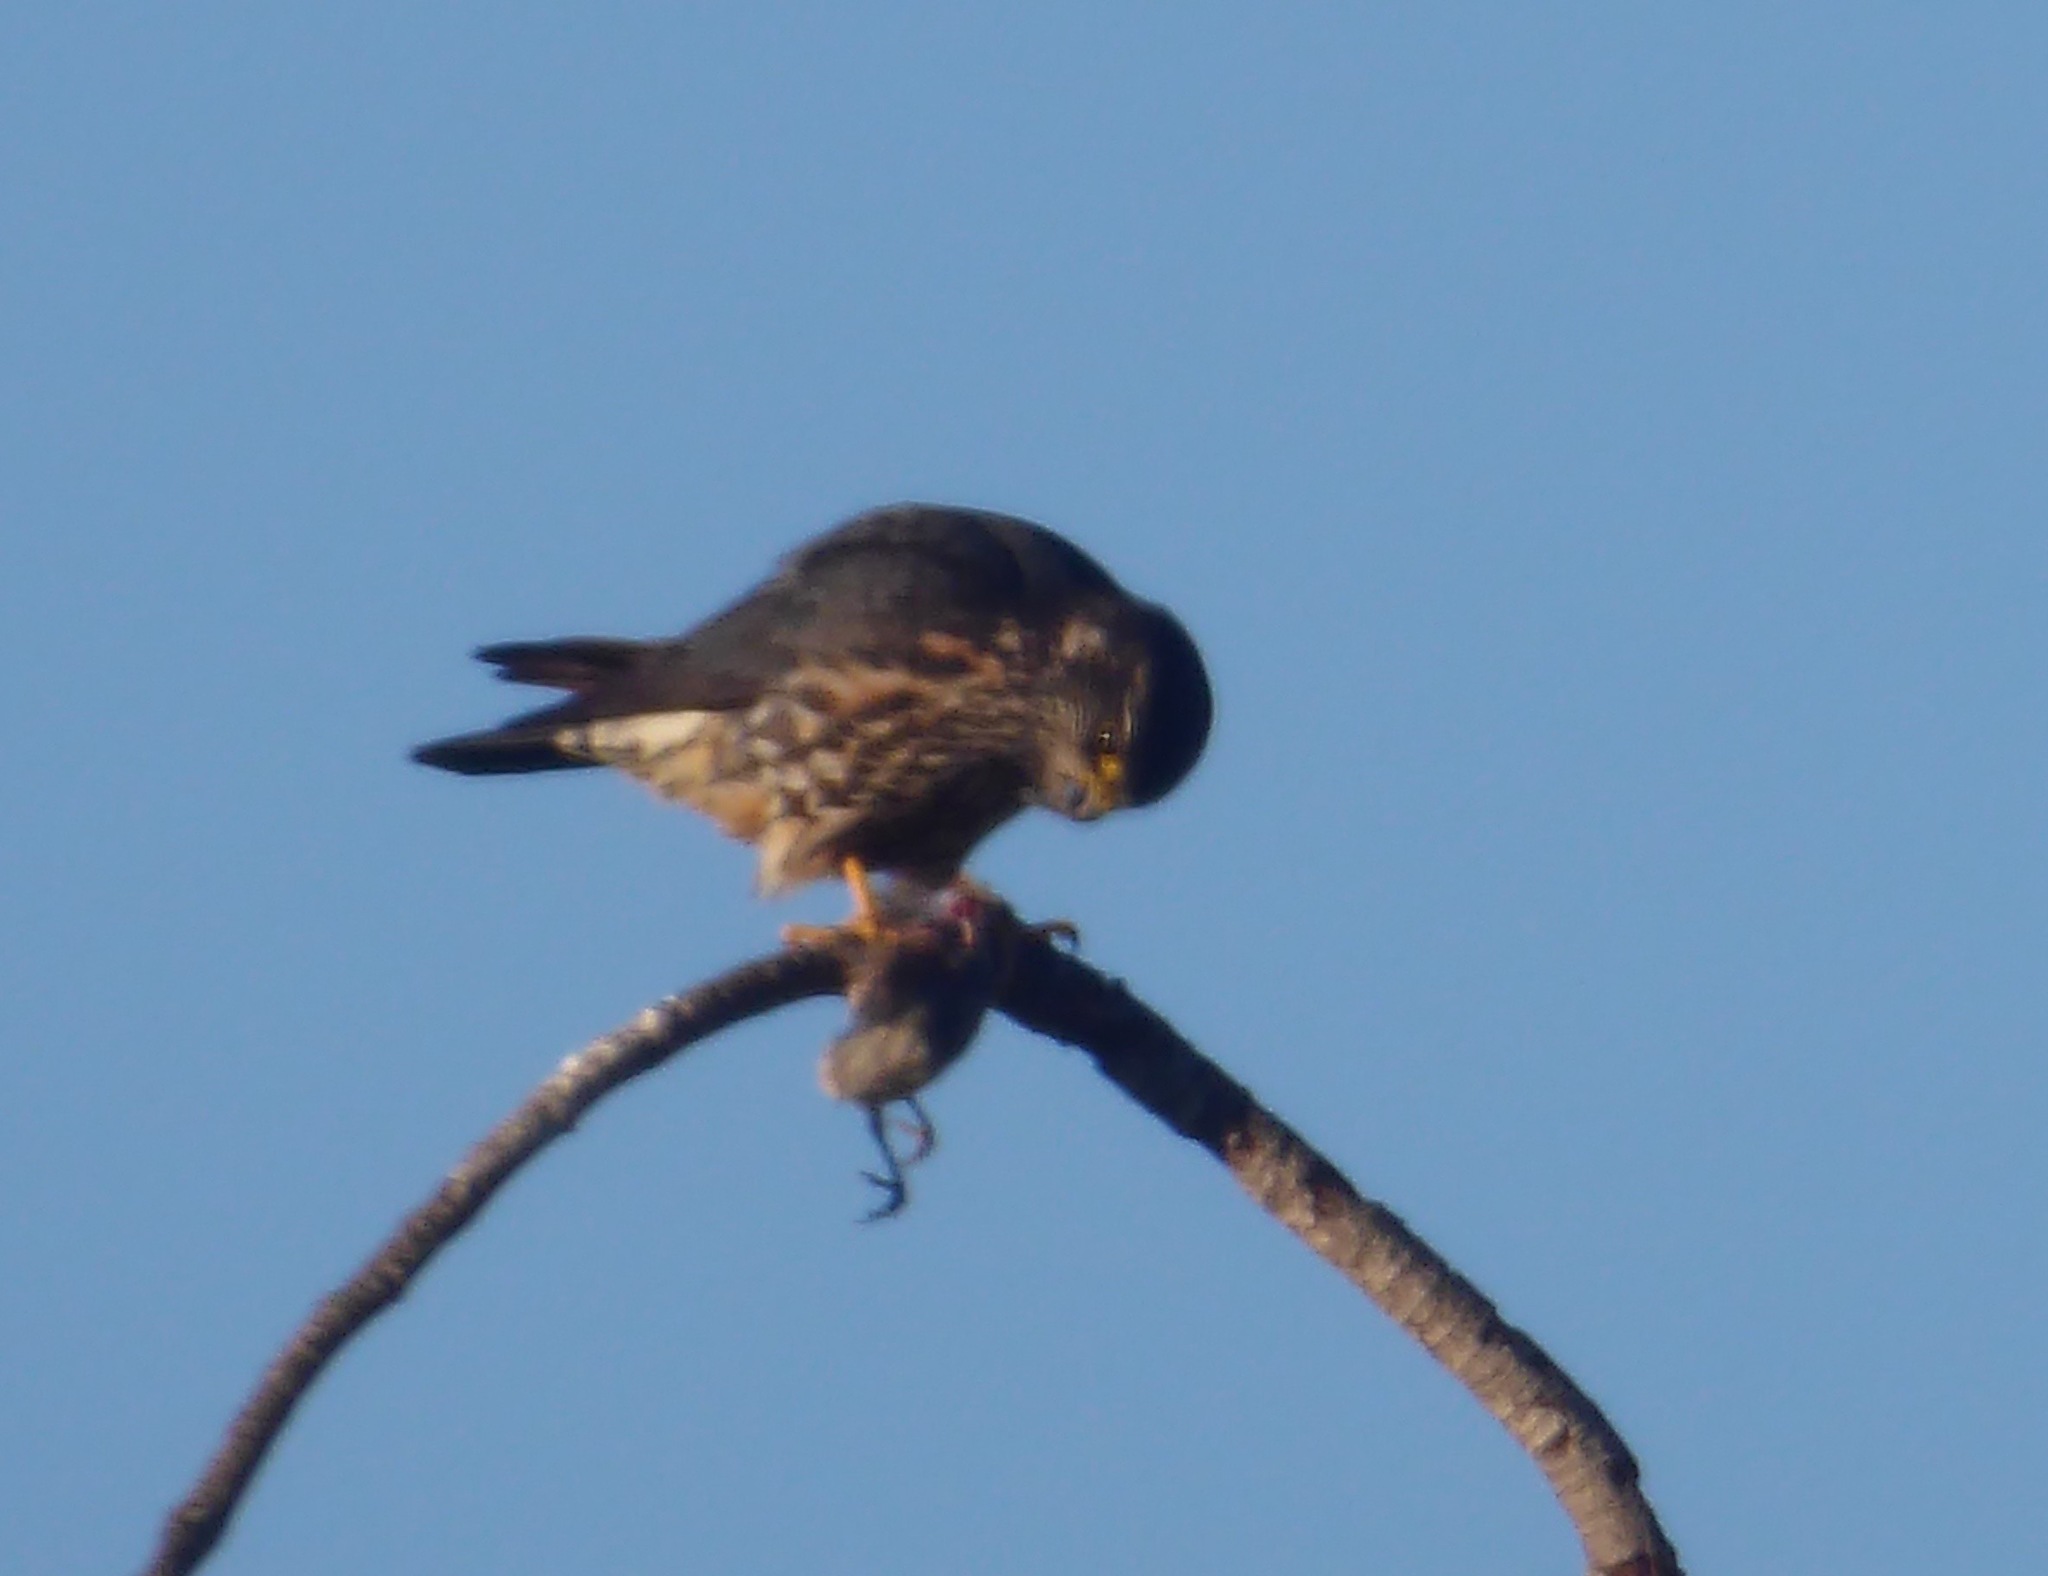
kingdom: Animalia
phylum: Chordata
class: Aves
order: Falconiformes
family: Falconidae
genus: Falco
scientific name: Falco columbarius
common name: Merlin
